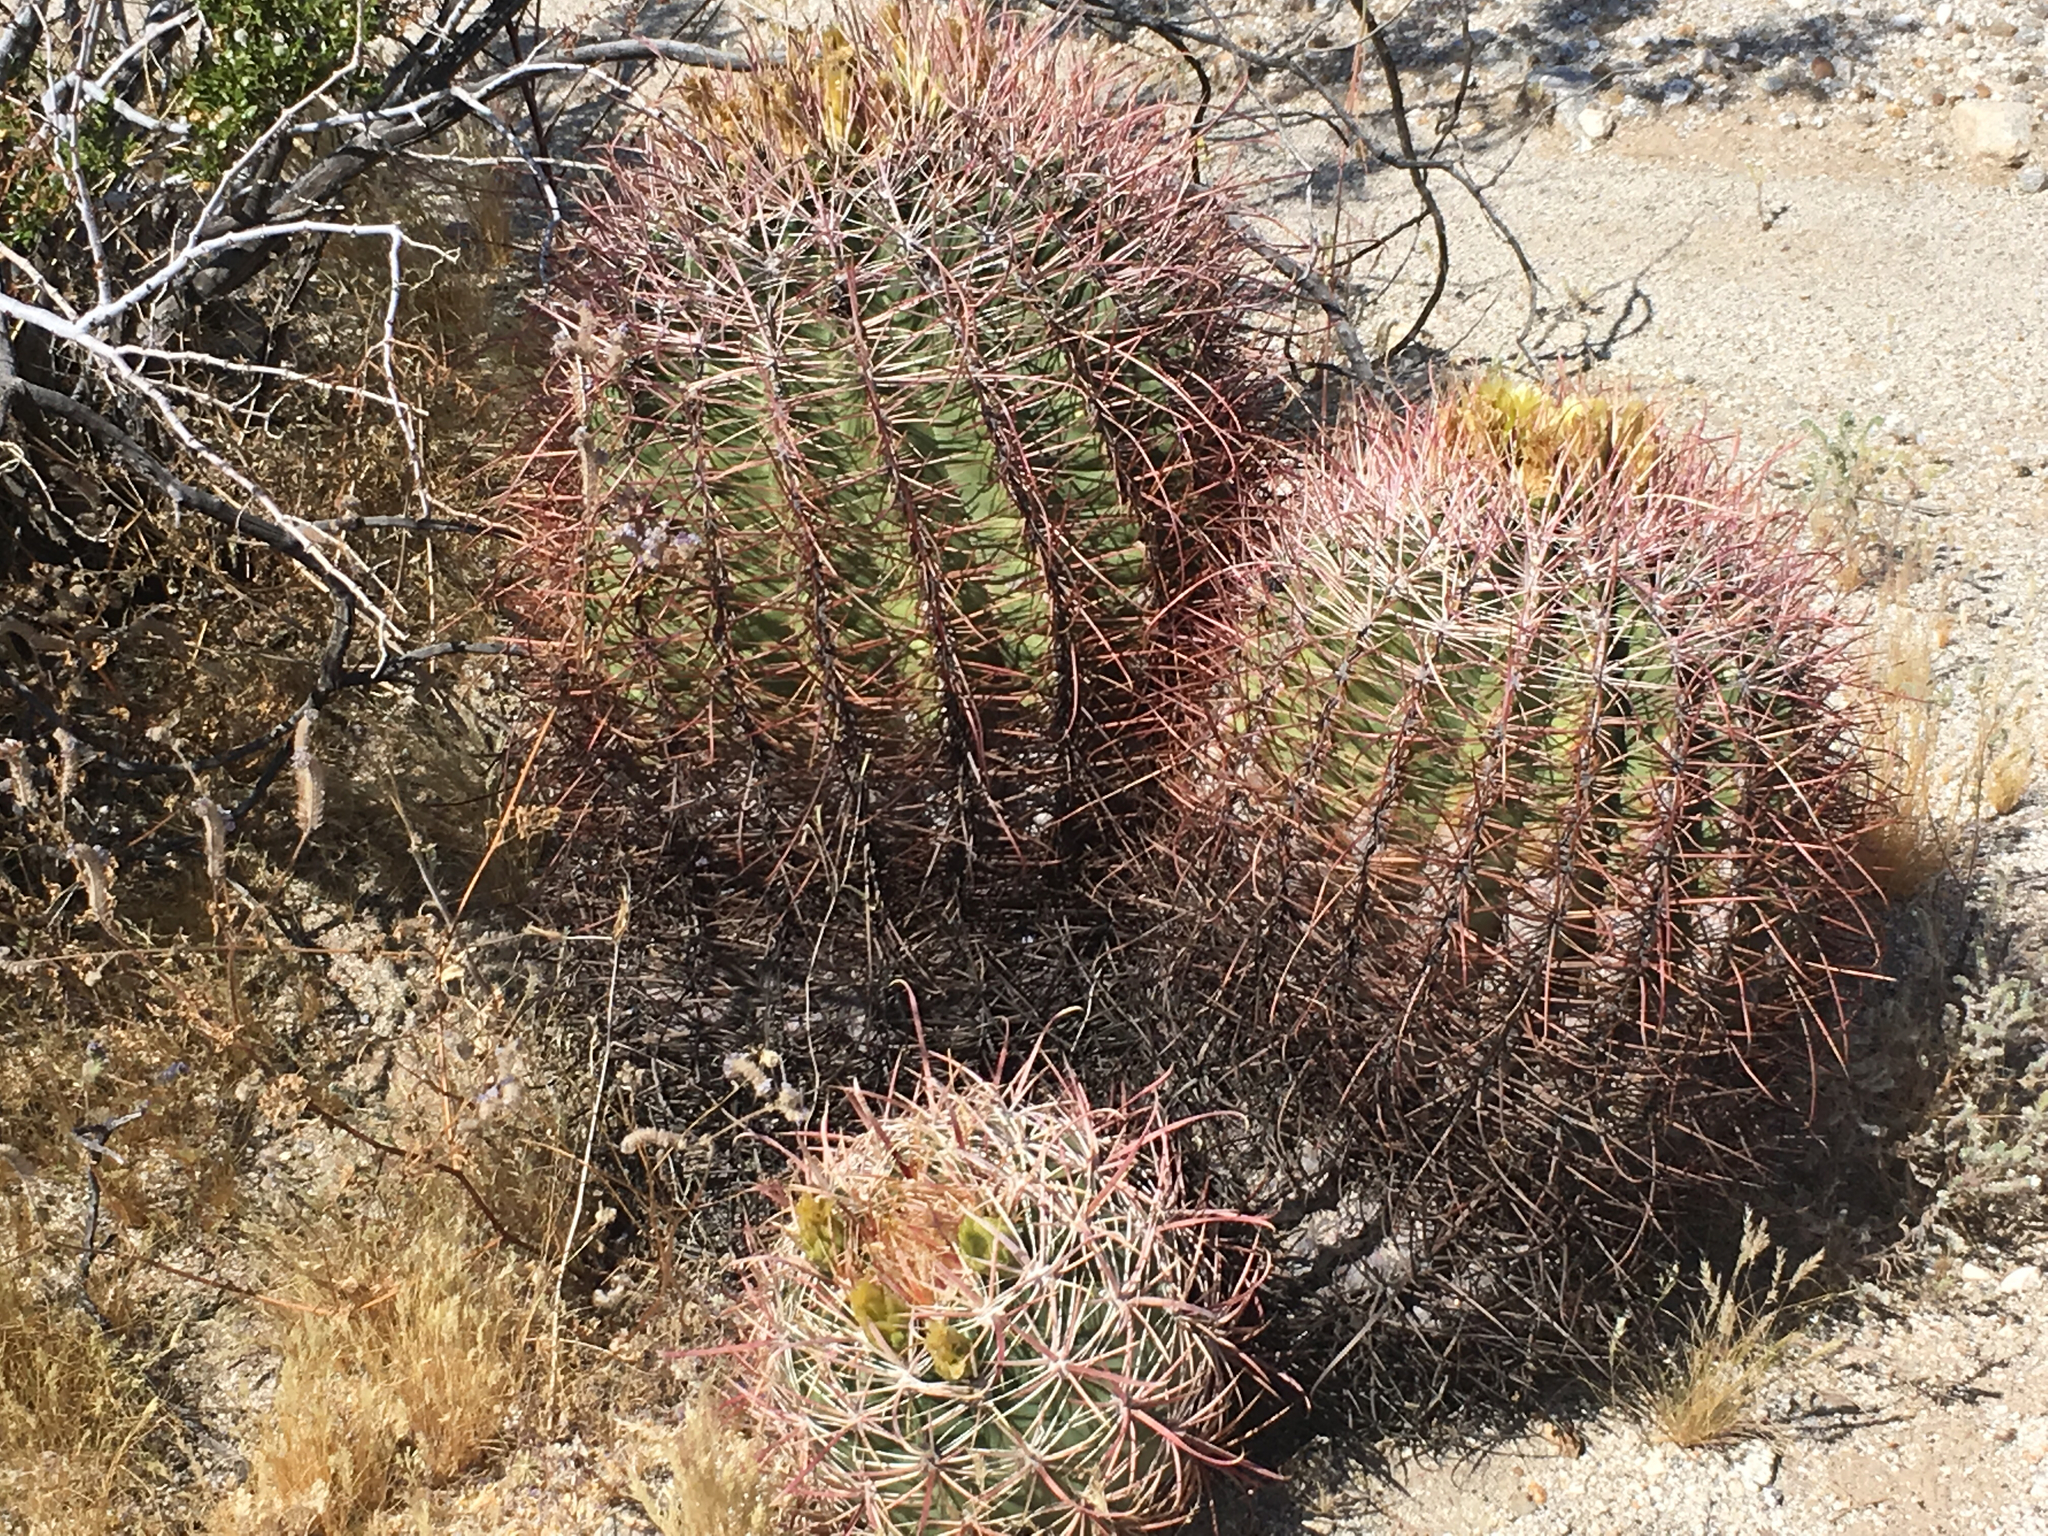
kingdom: Plantae
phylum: Tracheophyta
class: Magnoliopsida
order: Caryophyllales
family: Cactaceae
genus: Ferocactus
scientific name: Ferocactus cylindraceus
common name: California barrel cactus
